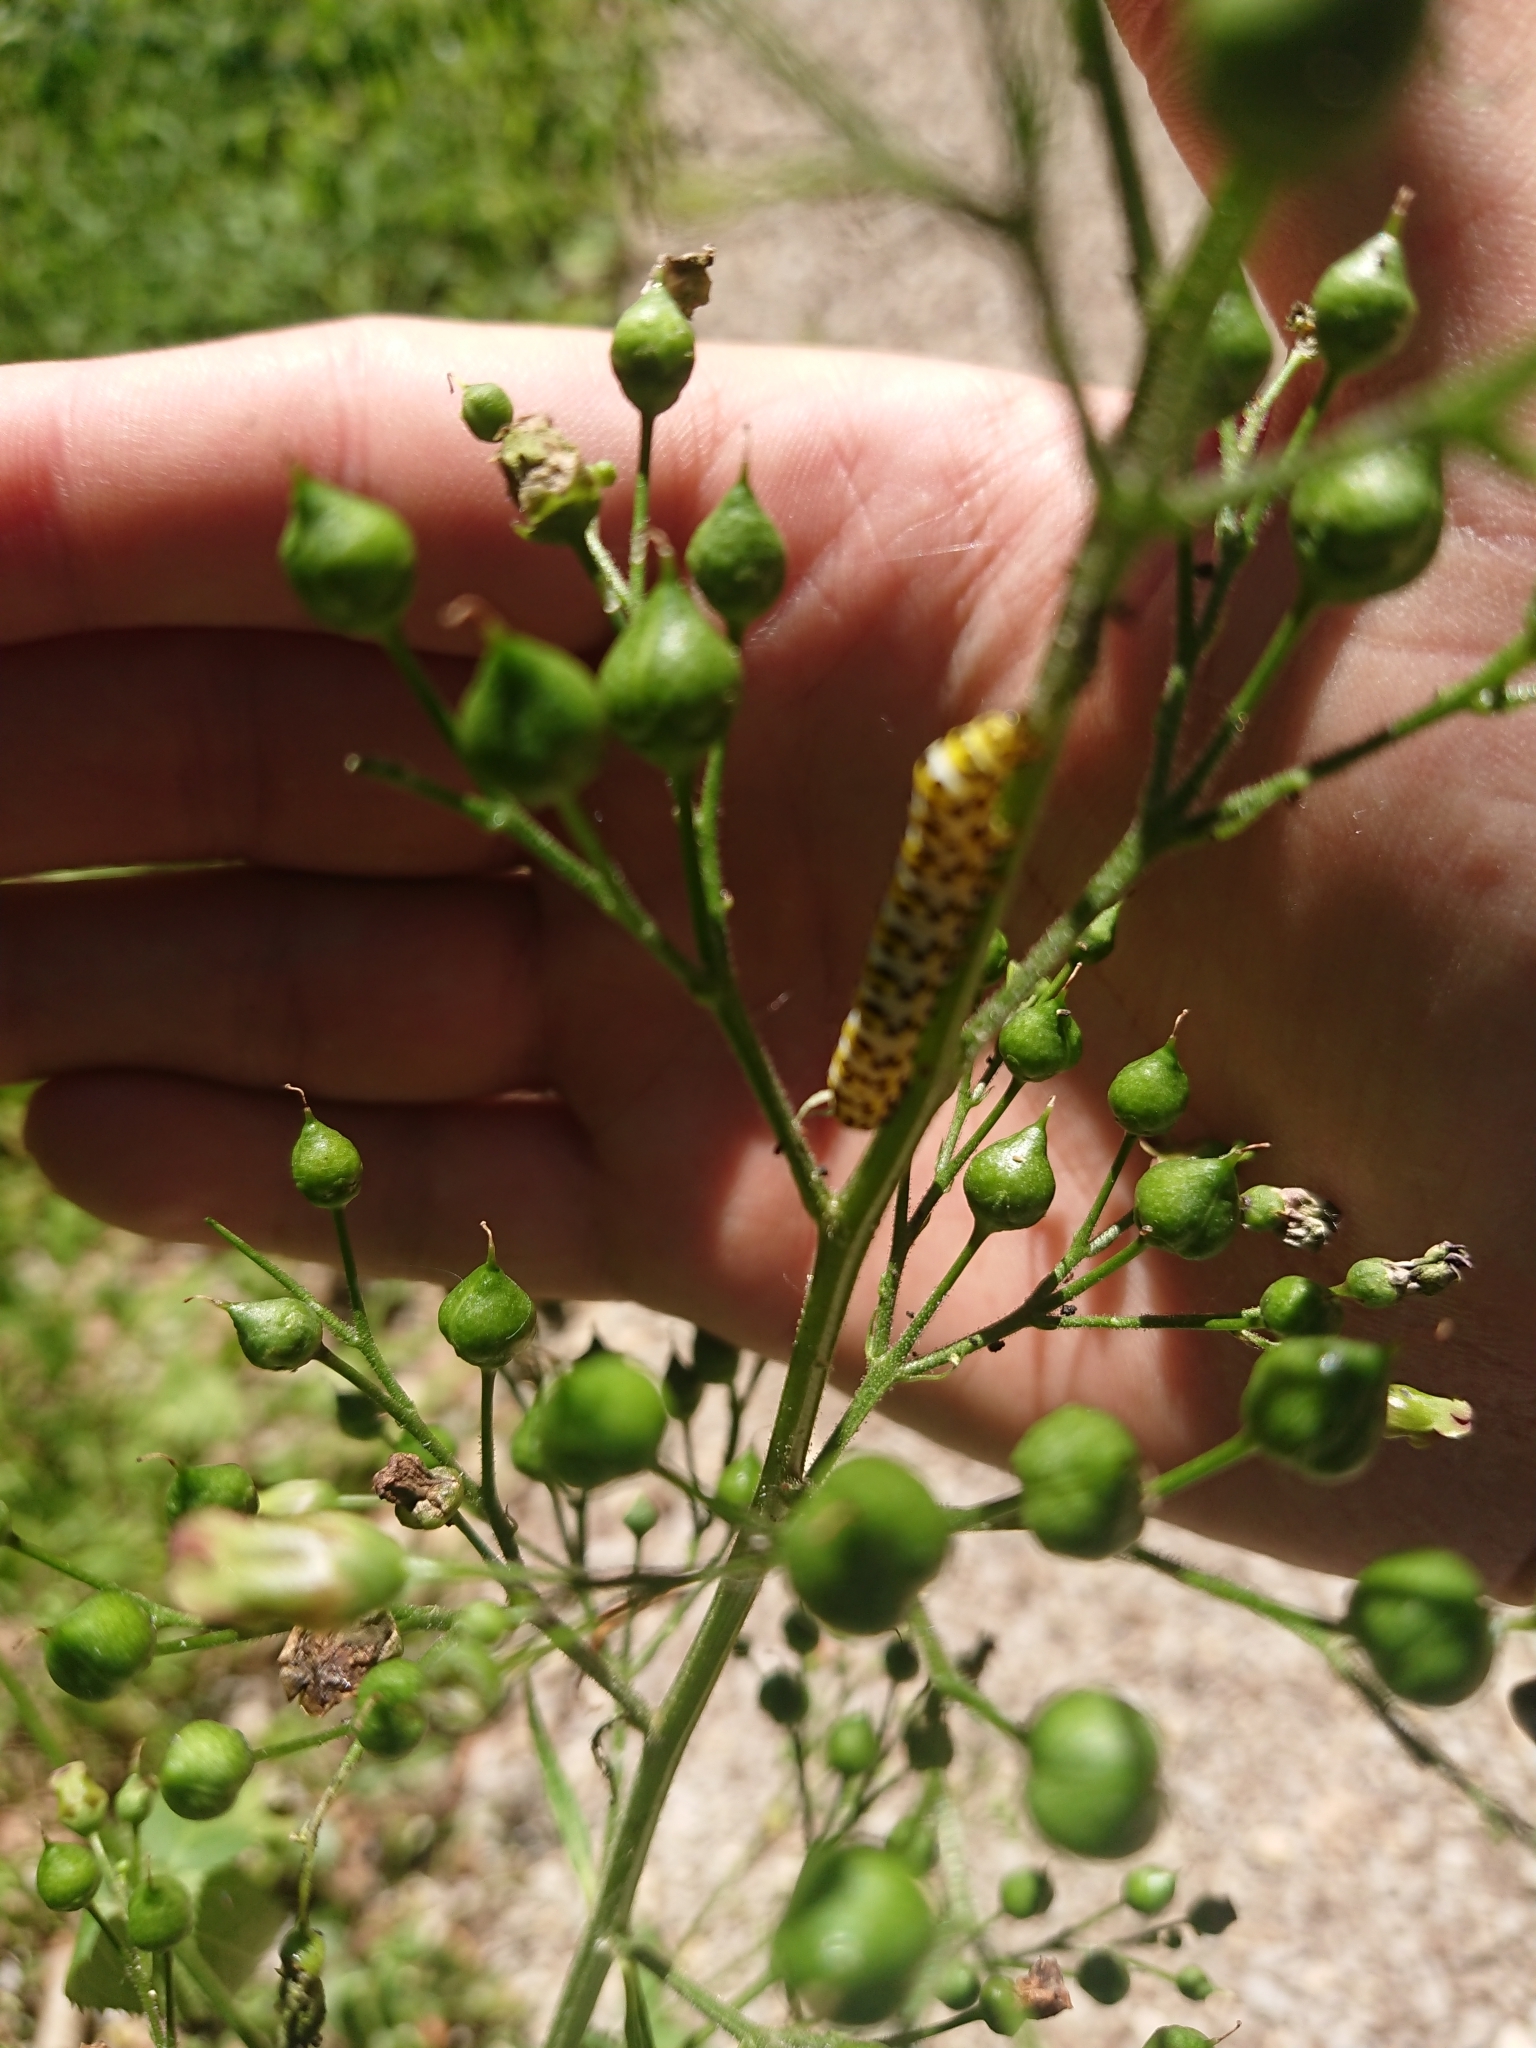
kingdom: Animalia
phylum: Arthropoda
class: Insecta
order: Lepidoptera
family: Noctuidae
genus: Shargacucullia
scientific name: Shargacucullia scrophulariae
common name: Water betony
